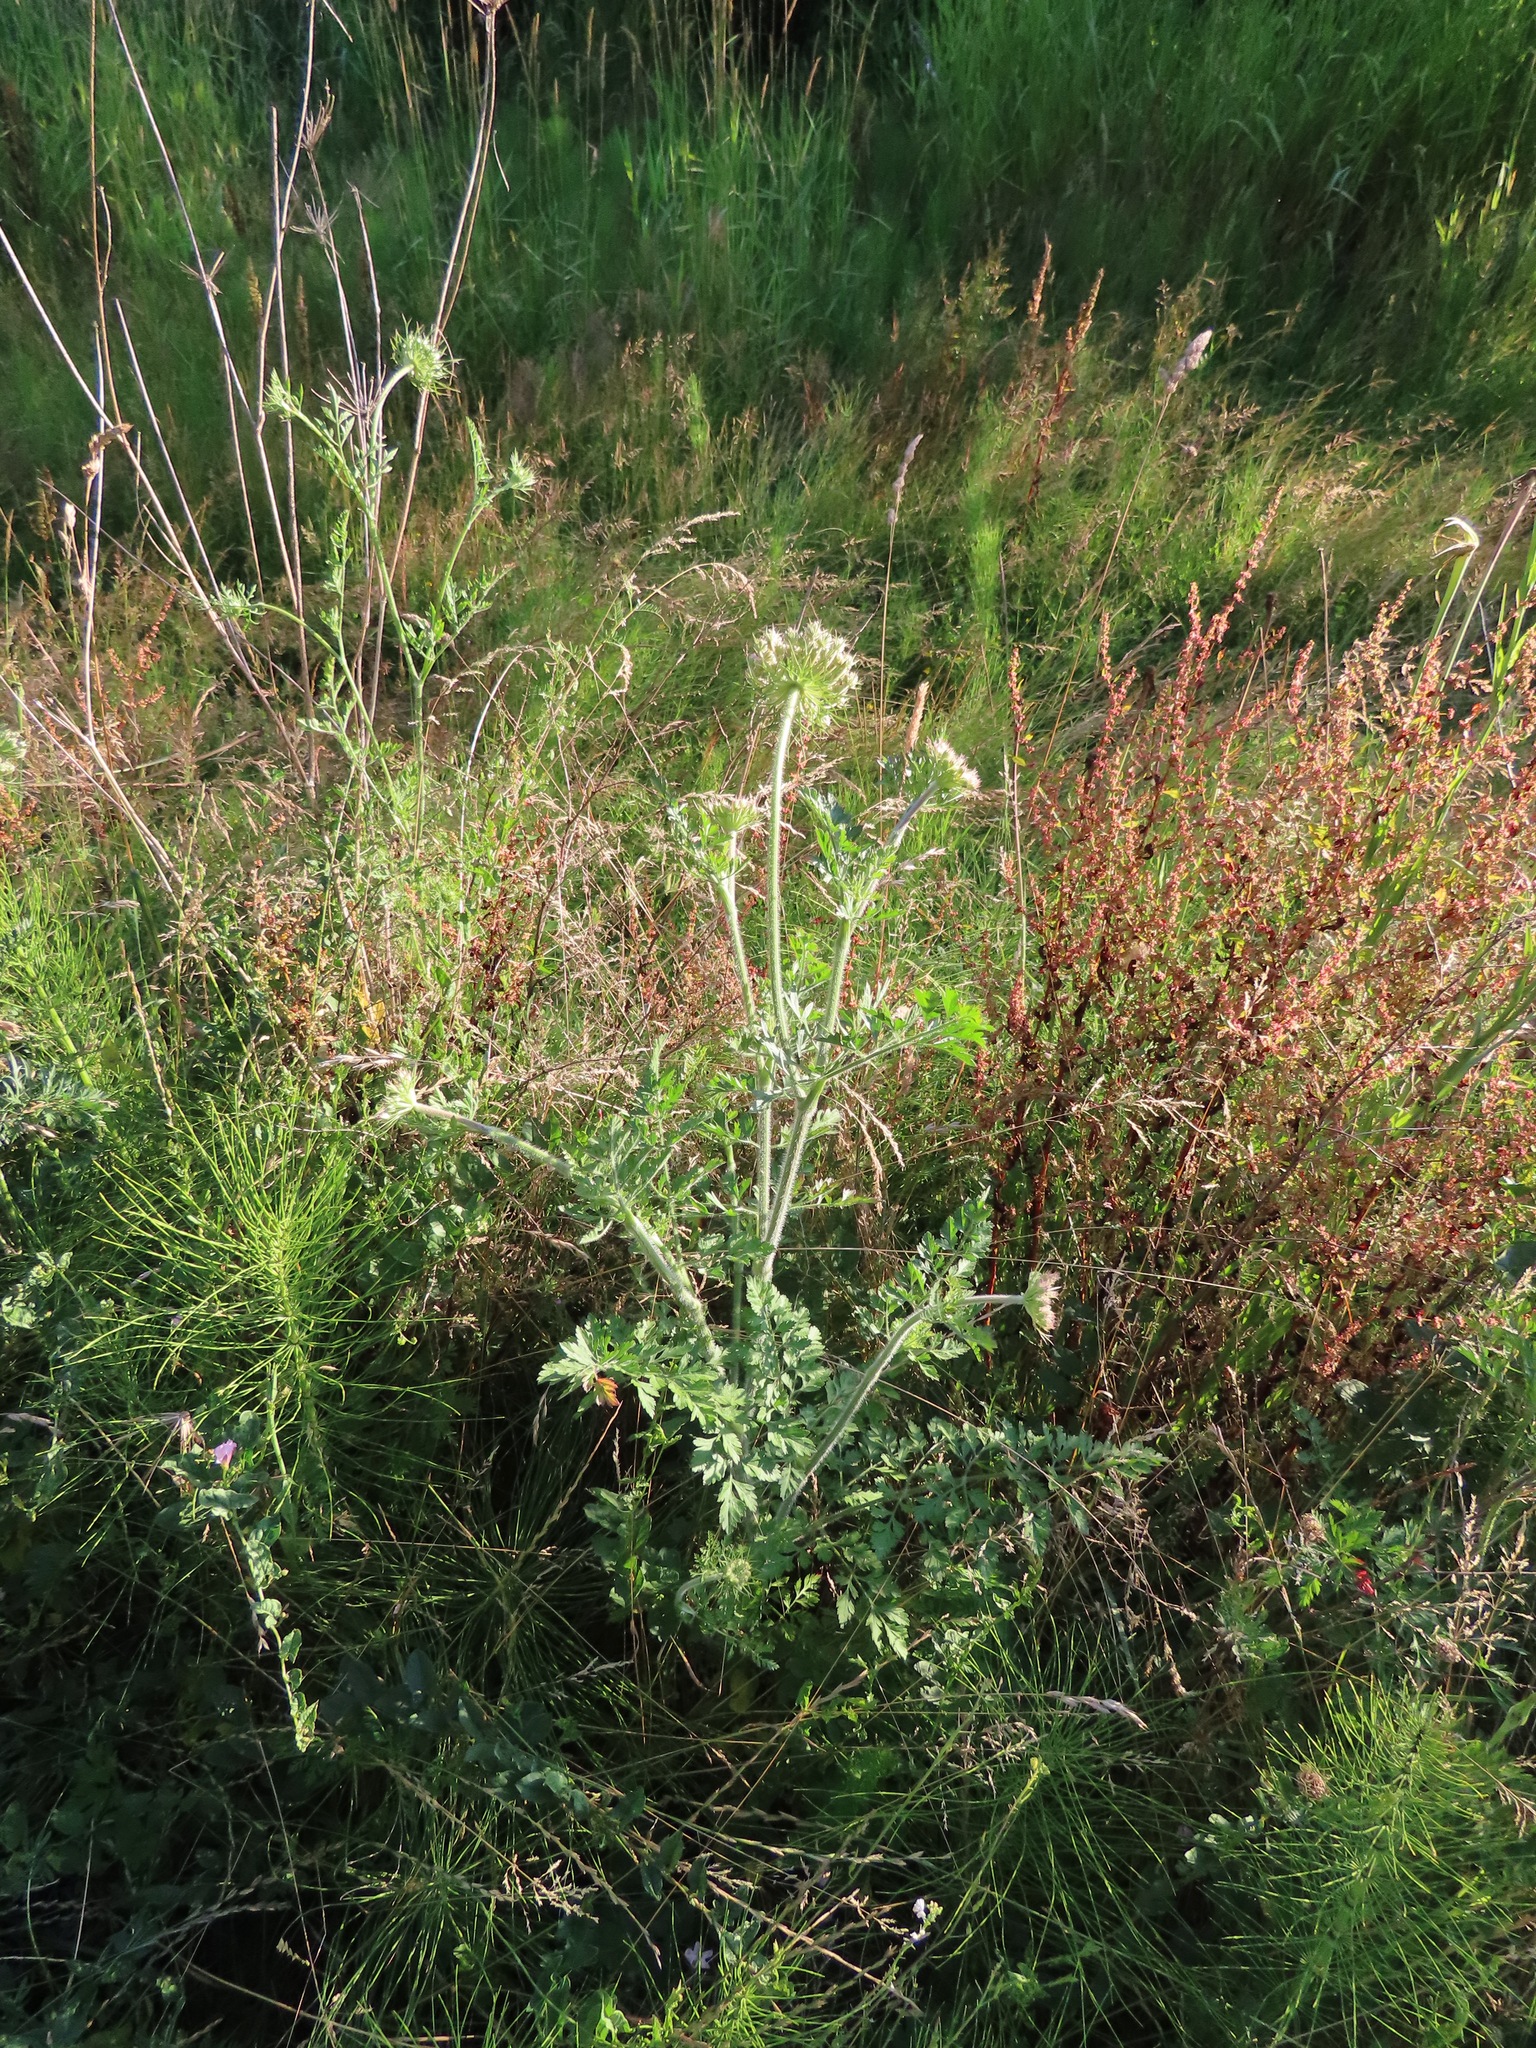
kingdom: Plantae
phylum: Tracheophyta
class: Magnoliopsida
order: Apiales
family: Apiaceae
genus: Daucus
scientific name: Daucus carota
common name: Wild carrot
